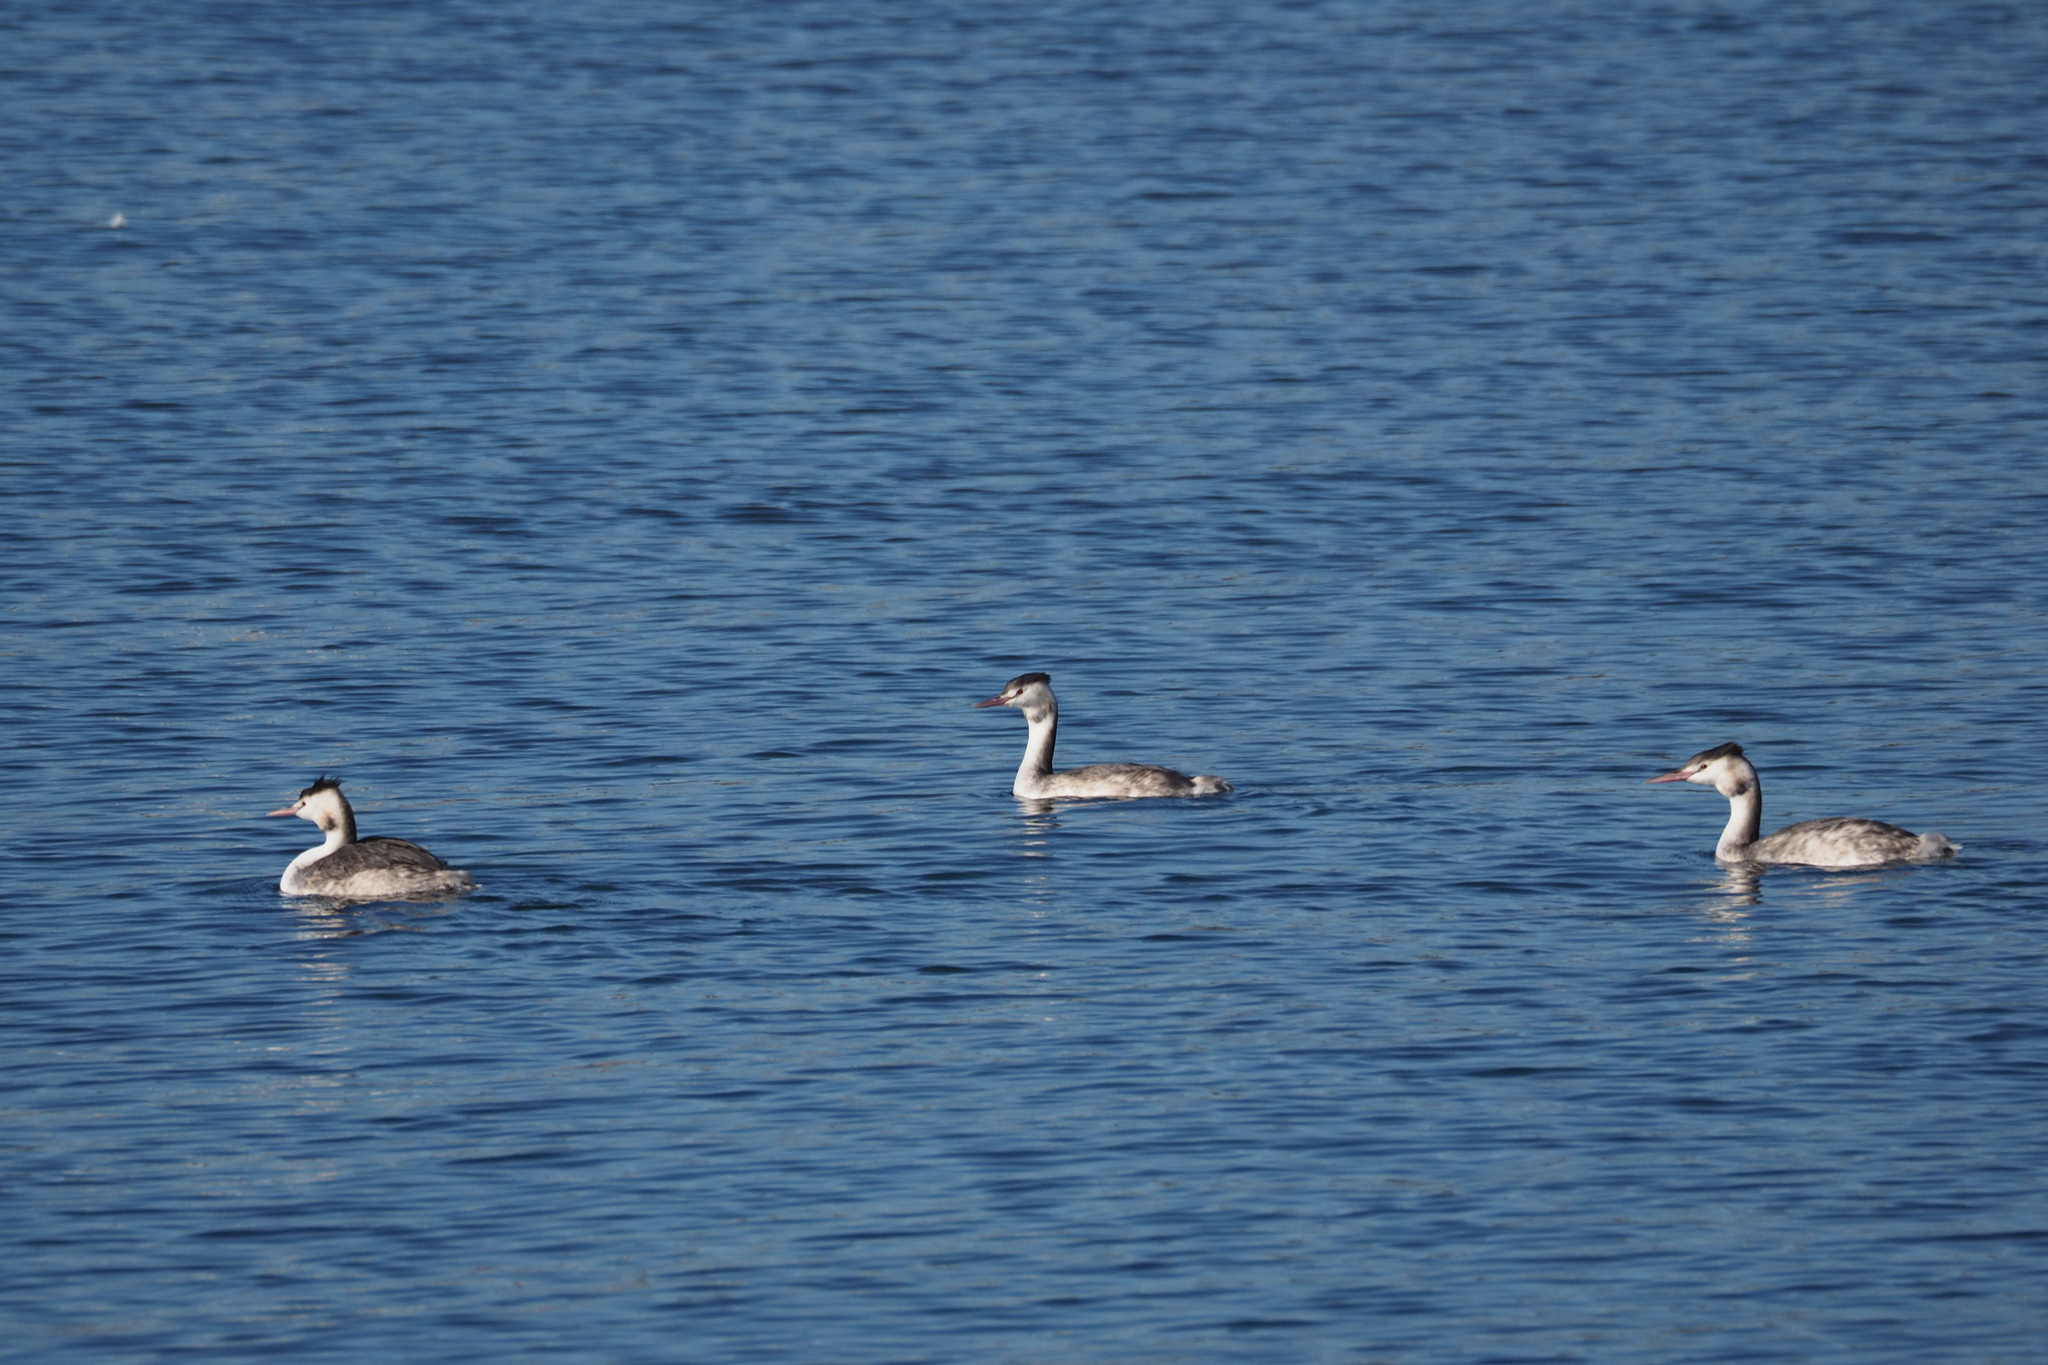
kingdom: Animalia
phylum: Chordata
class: Aves
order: Podicipediformes
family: Podicipedidae
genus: Podiceps
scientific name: Podiceps cristatus
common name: Great crested grebe
